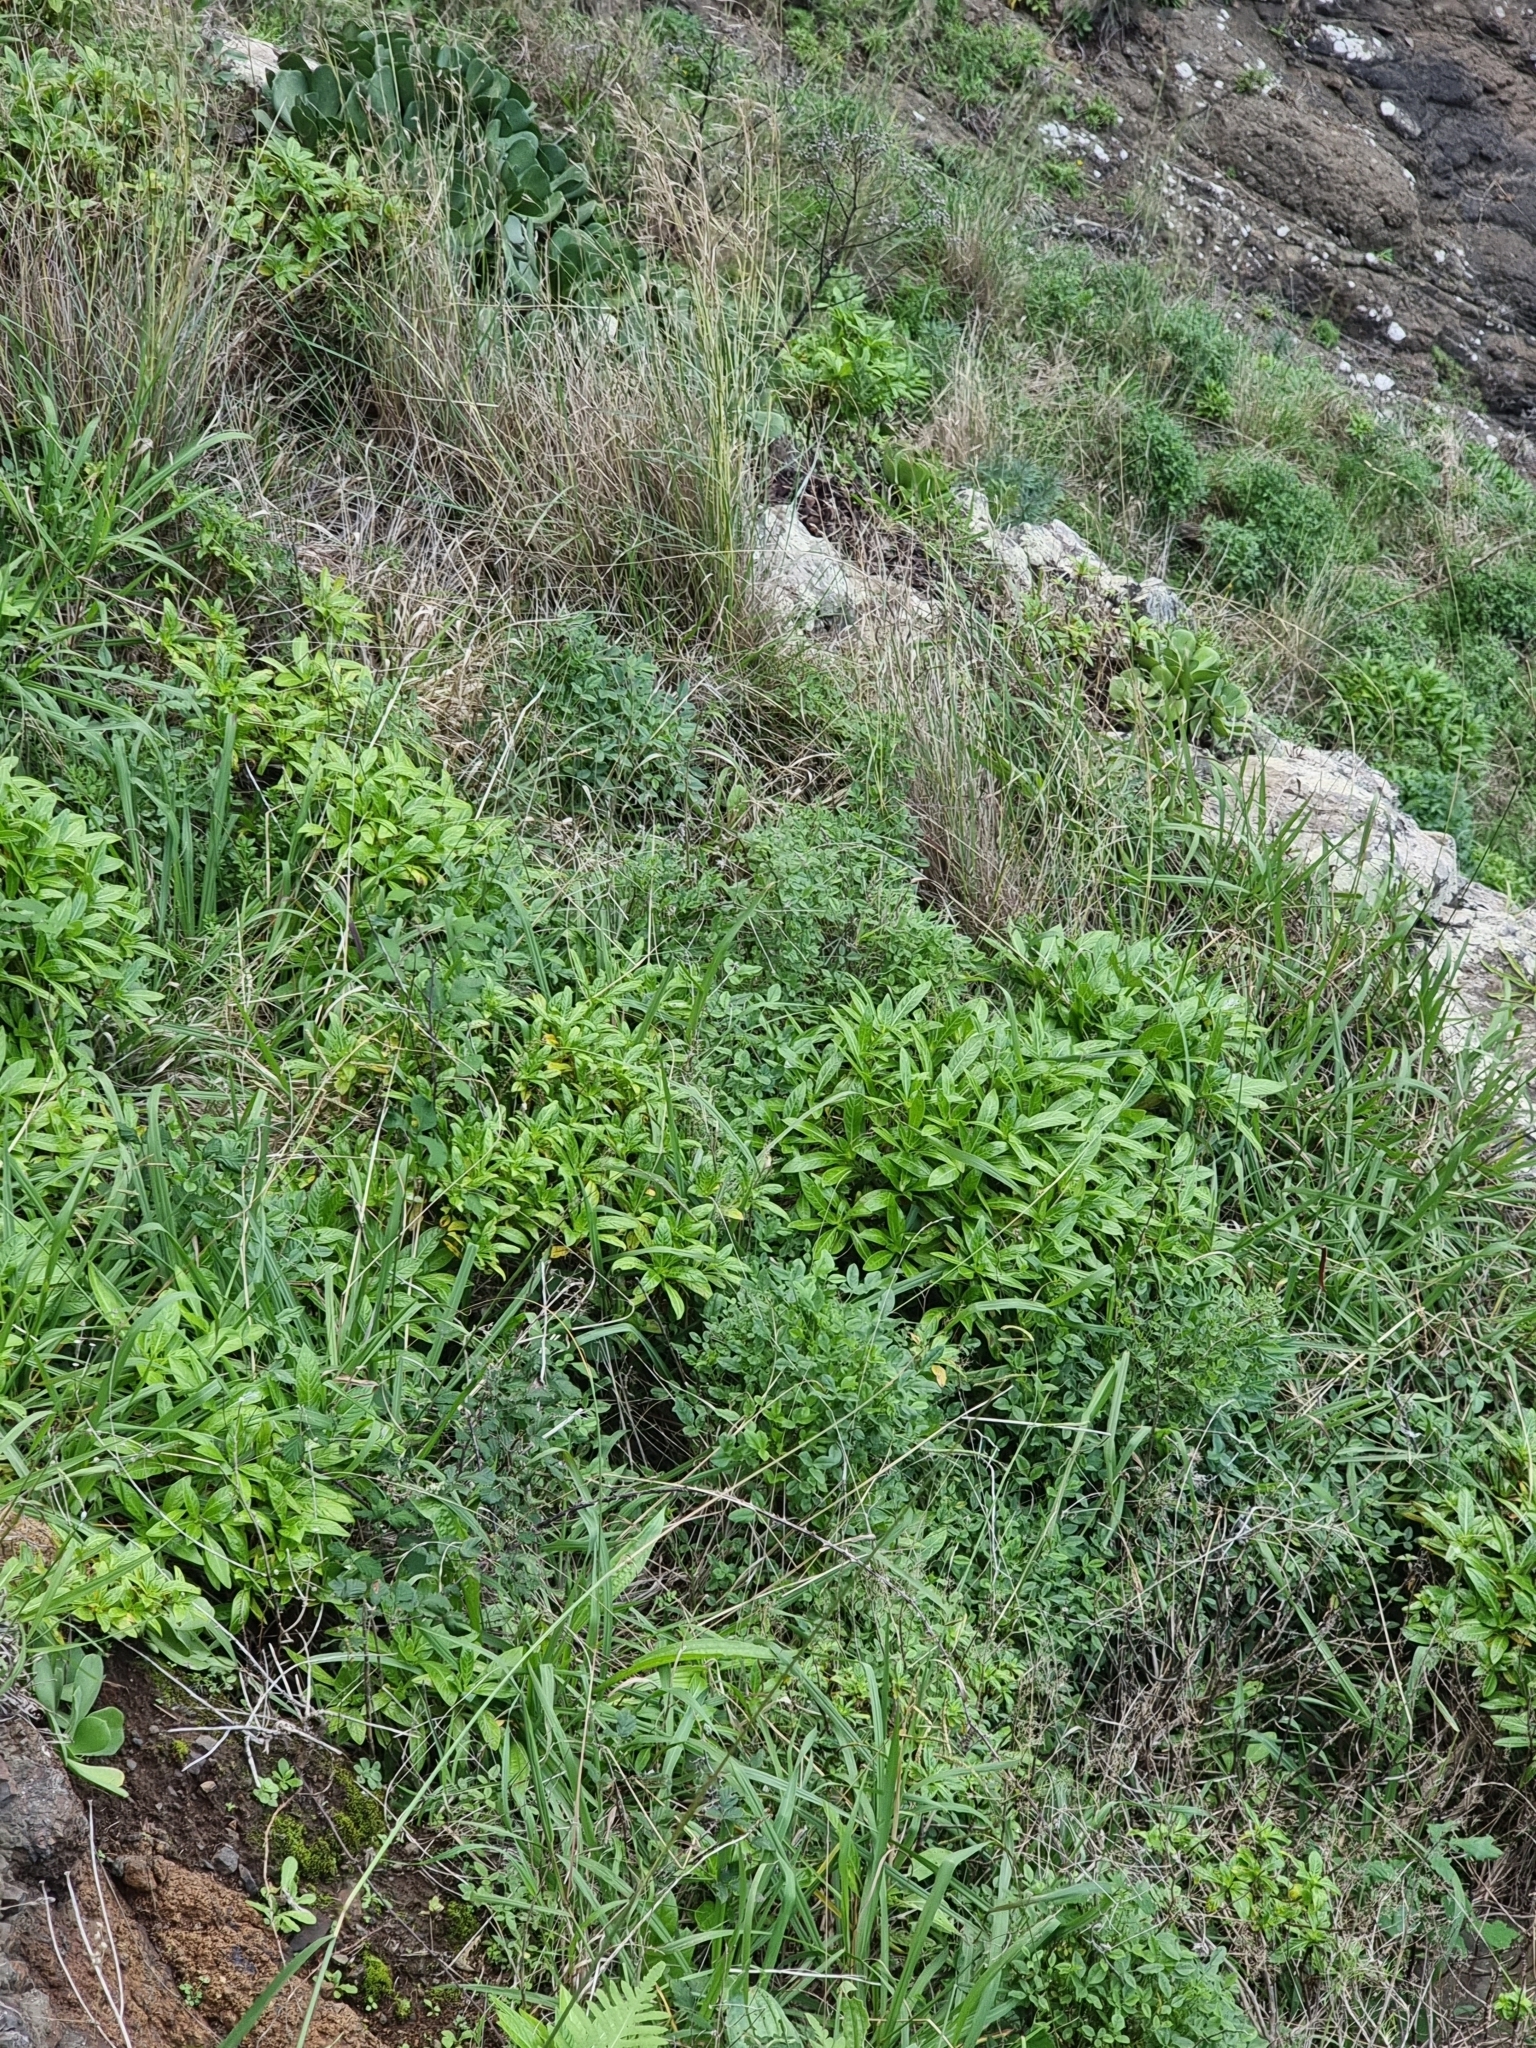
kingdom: Plantae
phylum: Tracheophyta
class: Magnoliopsida
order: Gentianales
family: Rubiaceae
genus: Phyllis
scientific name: Phyllis nobla
